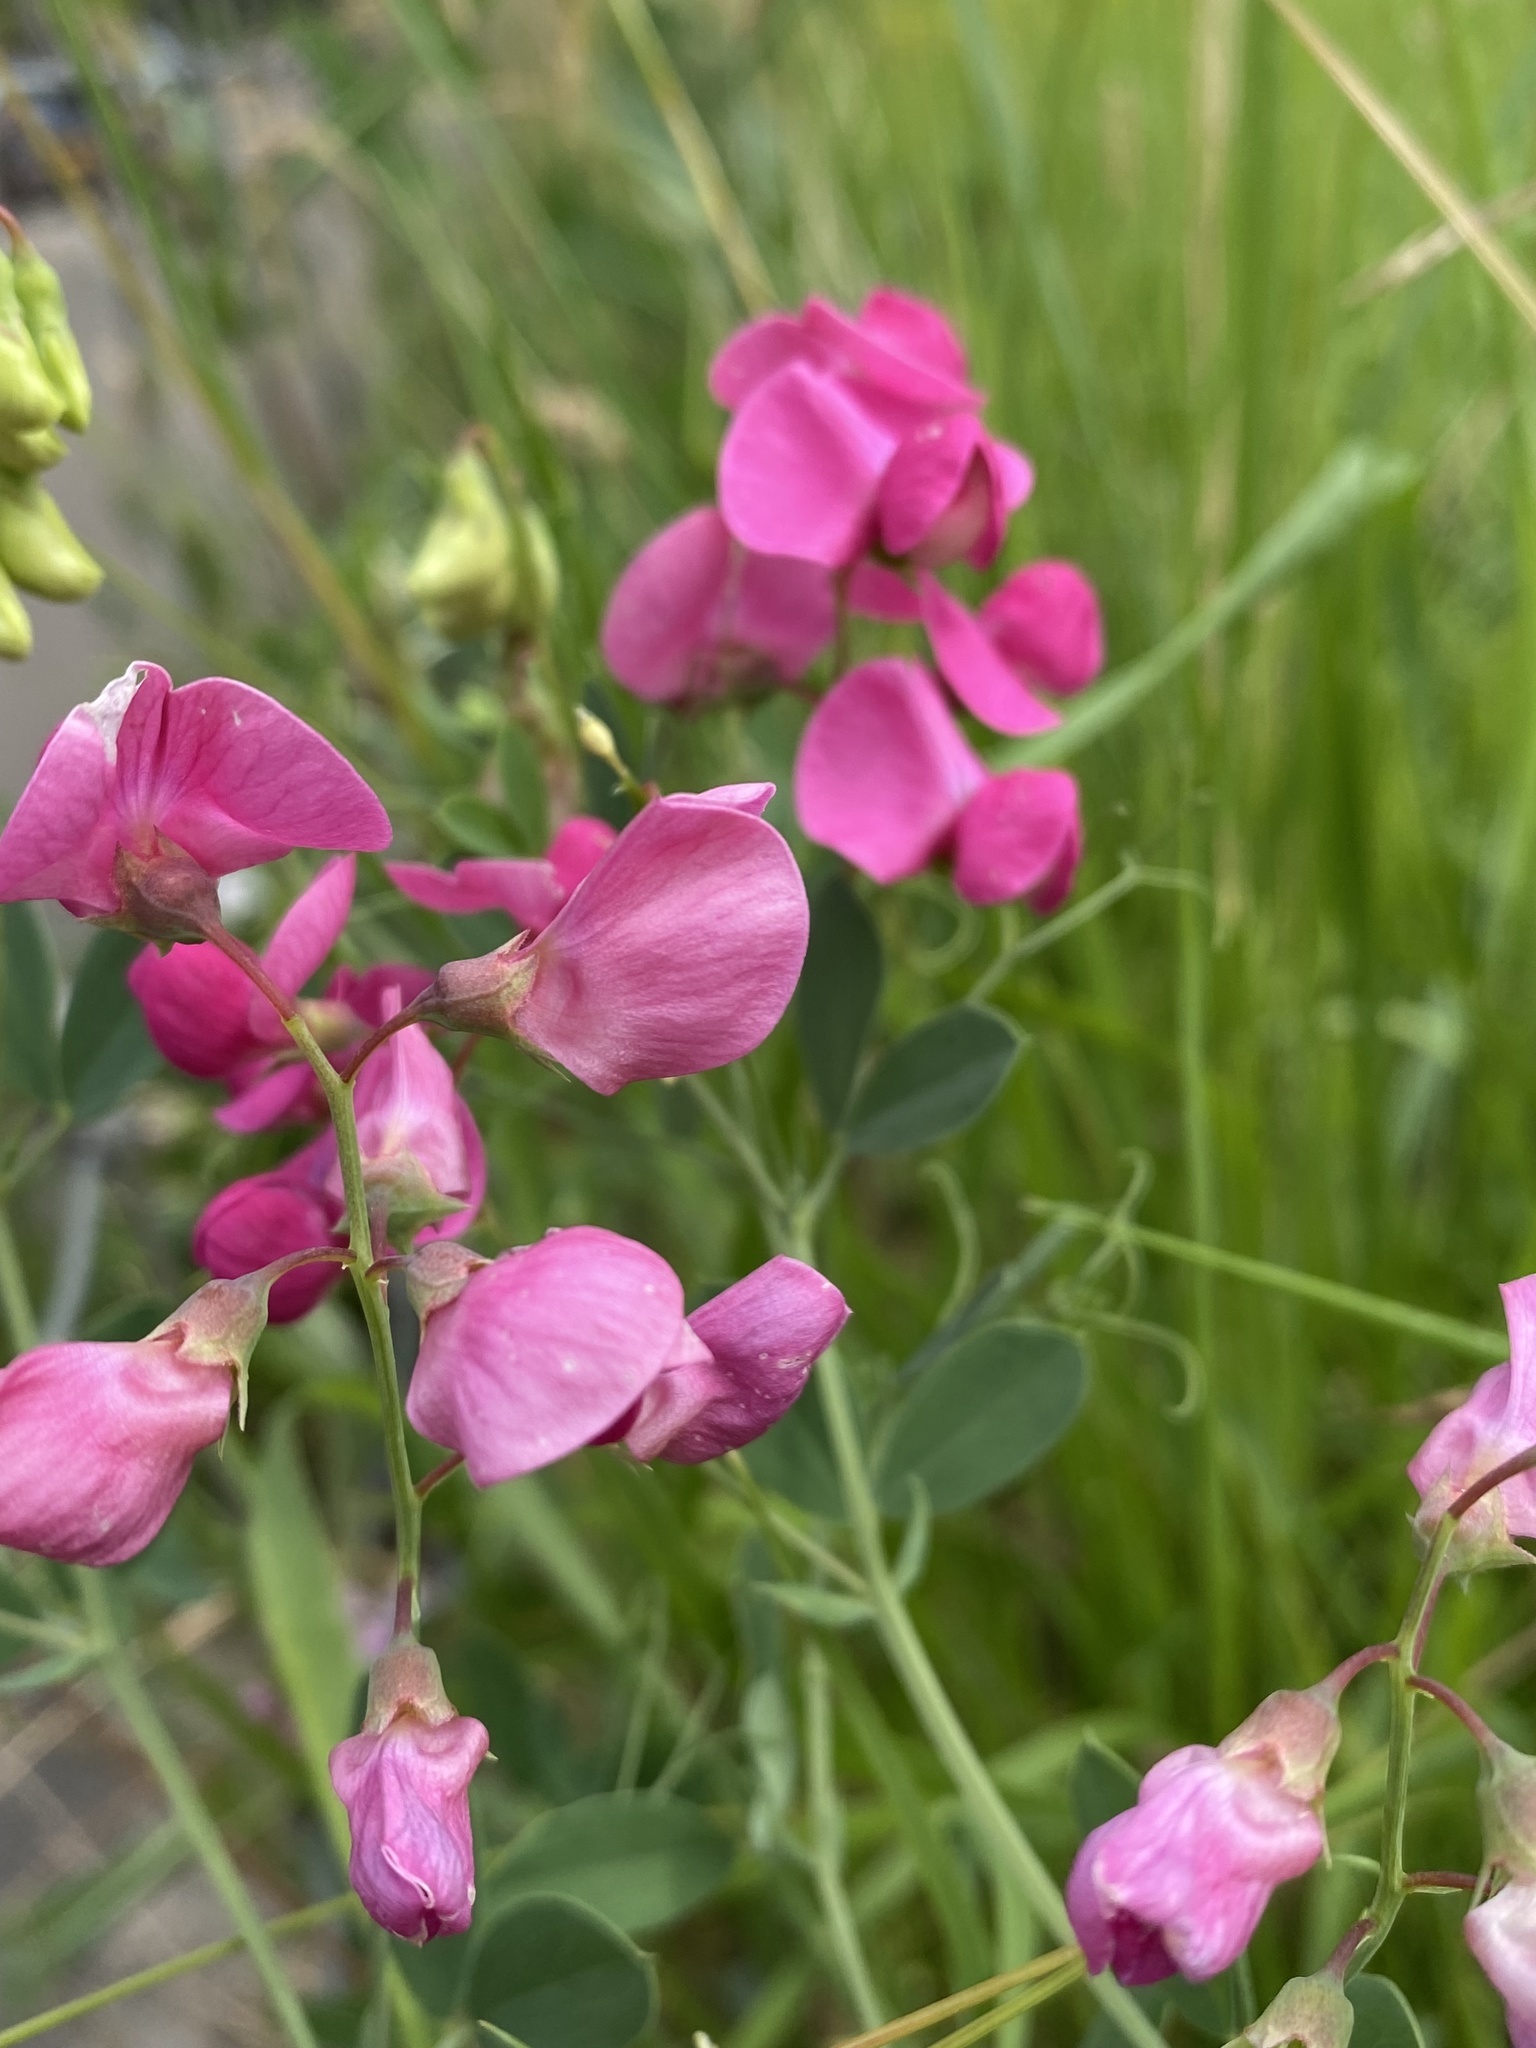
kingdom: Plantae
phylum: Tracheophyta
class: Magnoliopsida
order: Fabales
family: Fabaceae
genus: Lathyrus
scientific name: Lathyrus tuberosus
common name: Tuberous pea
